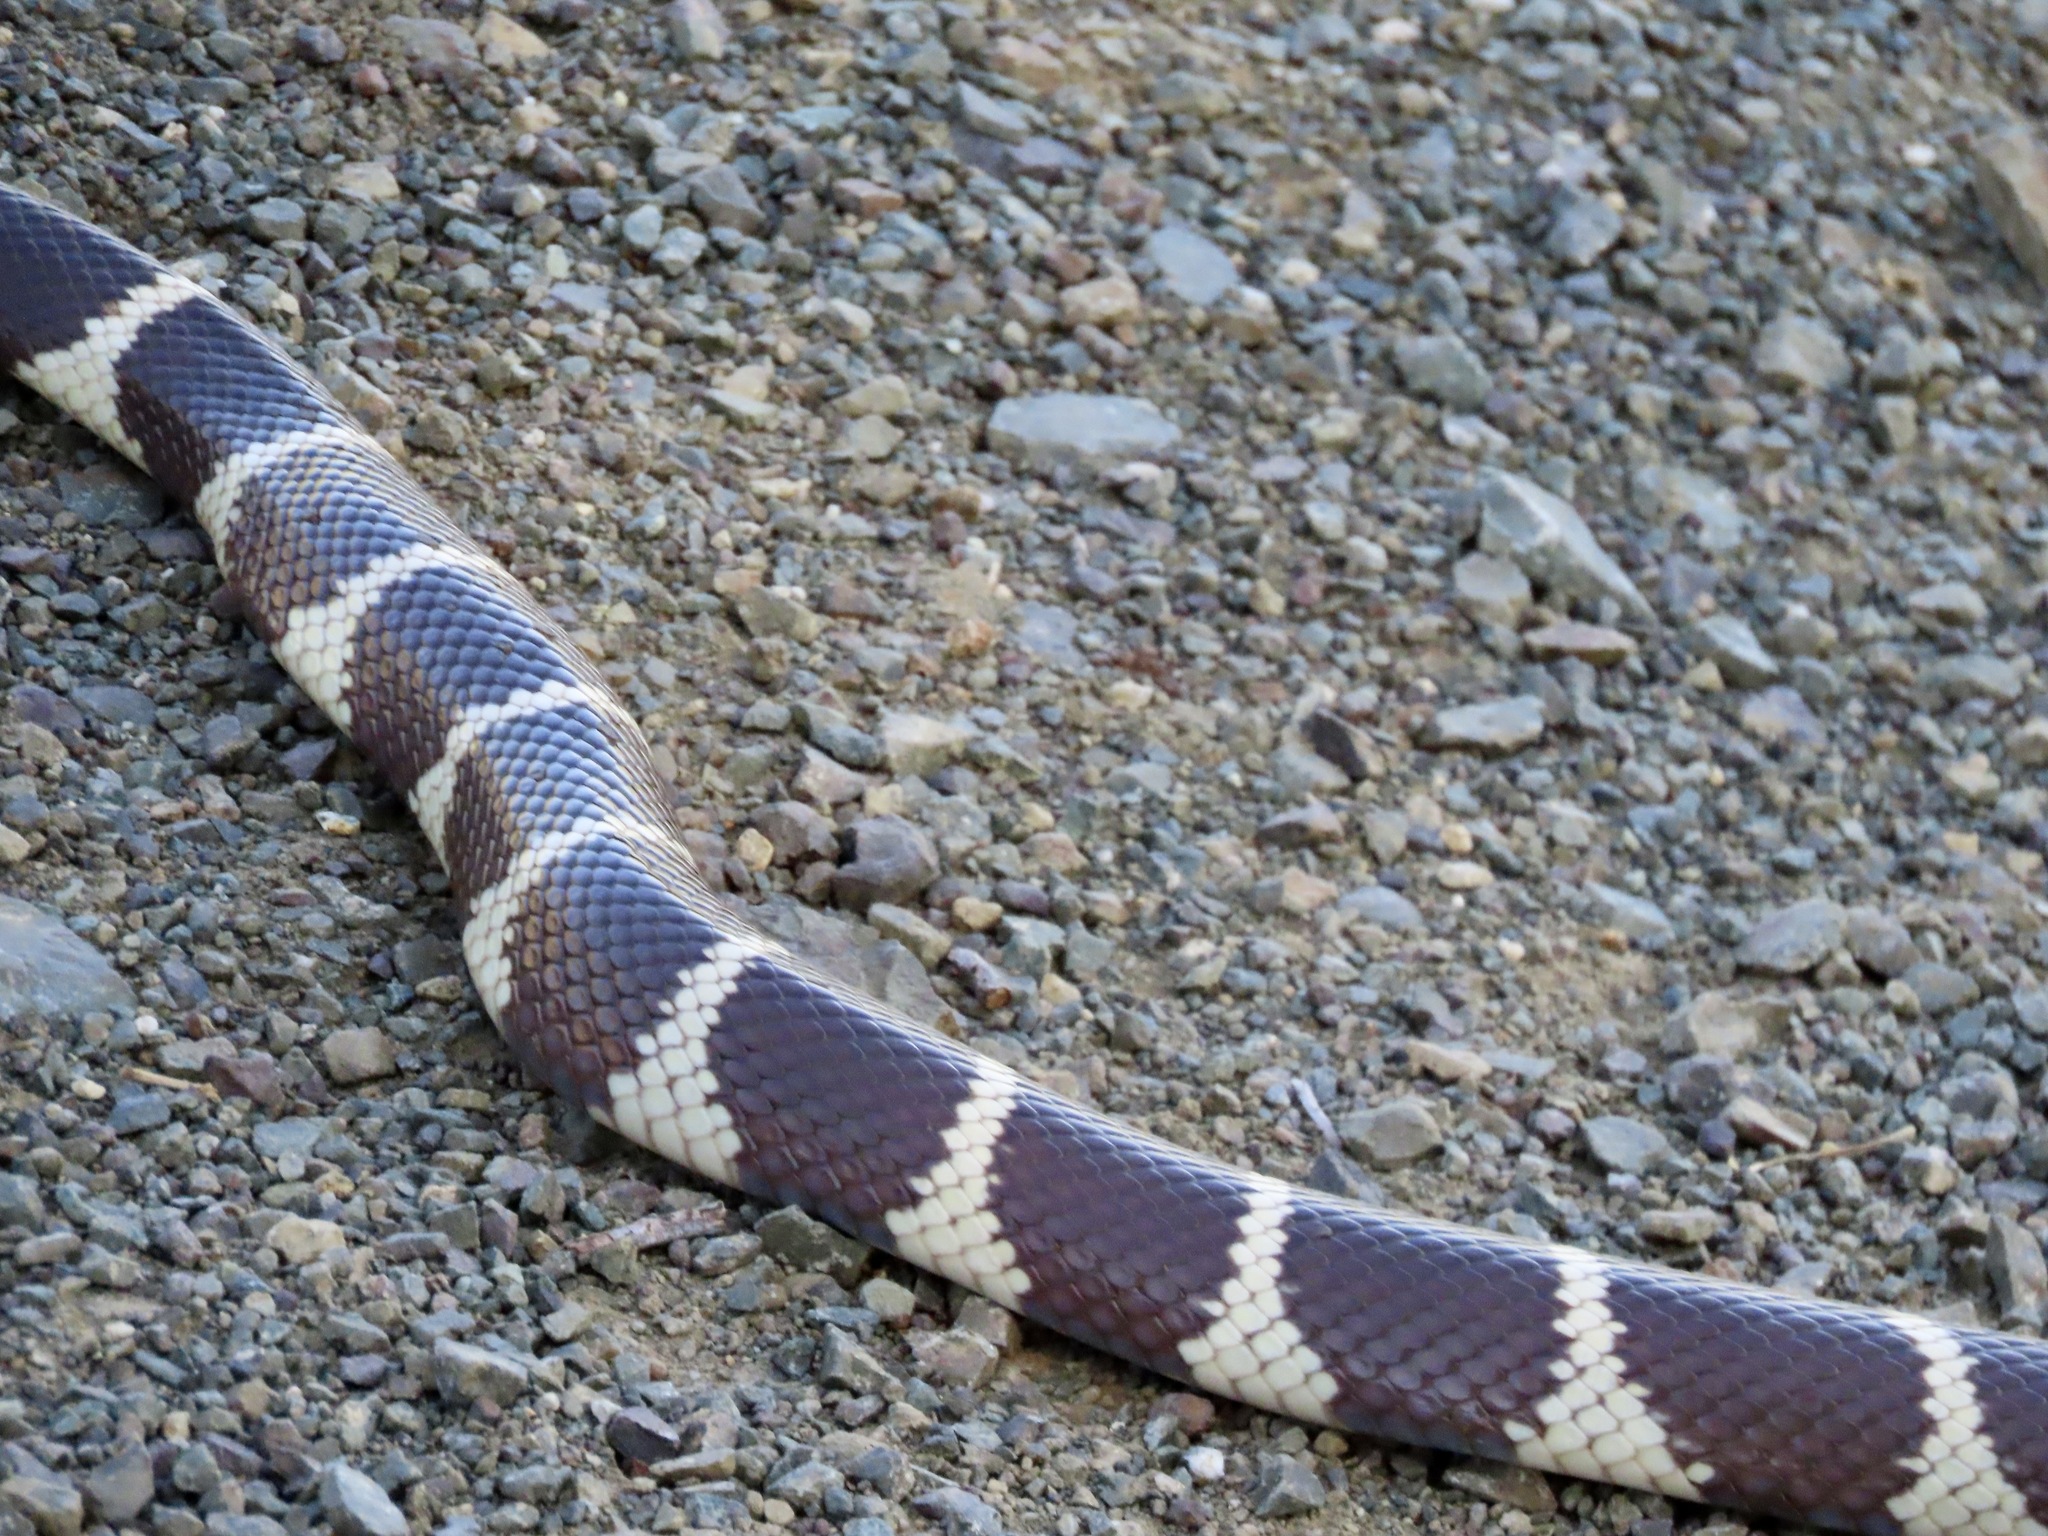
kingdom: Animalia
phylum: Chordata
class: Squamata
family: Colubridae
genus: Lampropeltis
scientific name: Lampropeltis californiae
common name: California kingsnake
